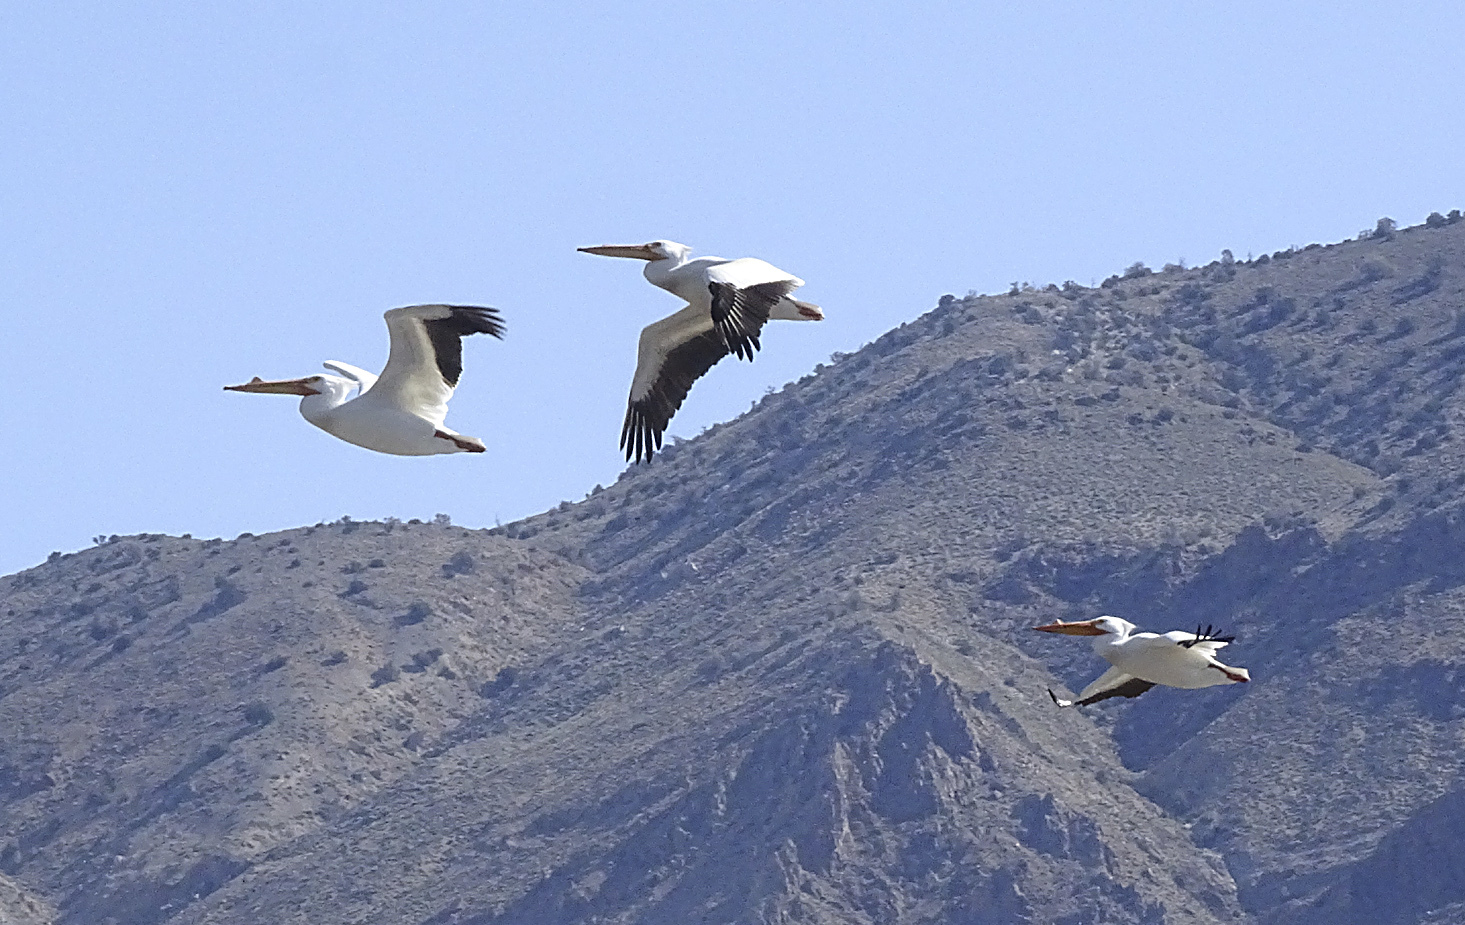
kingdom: Animalia
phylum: Chordata
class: Aves
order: Pelecaniformes
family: Pelecanidae
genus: Pelecanus
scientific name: Pelecanus erythrorhynchos
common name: American white pelican
